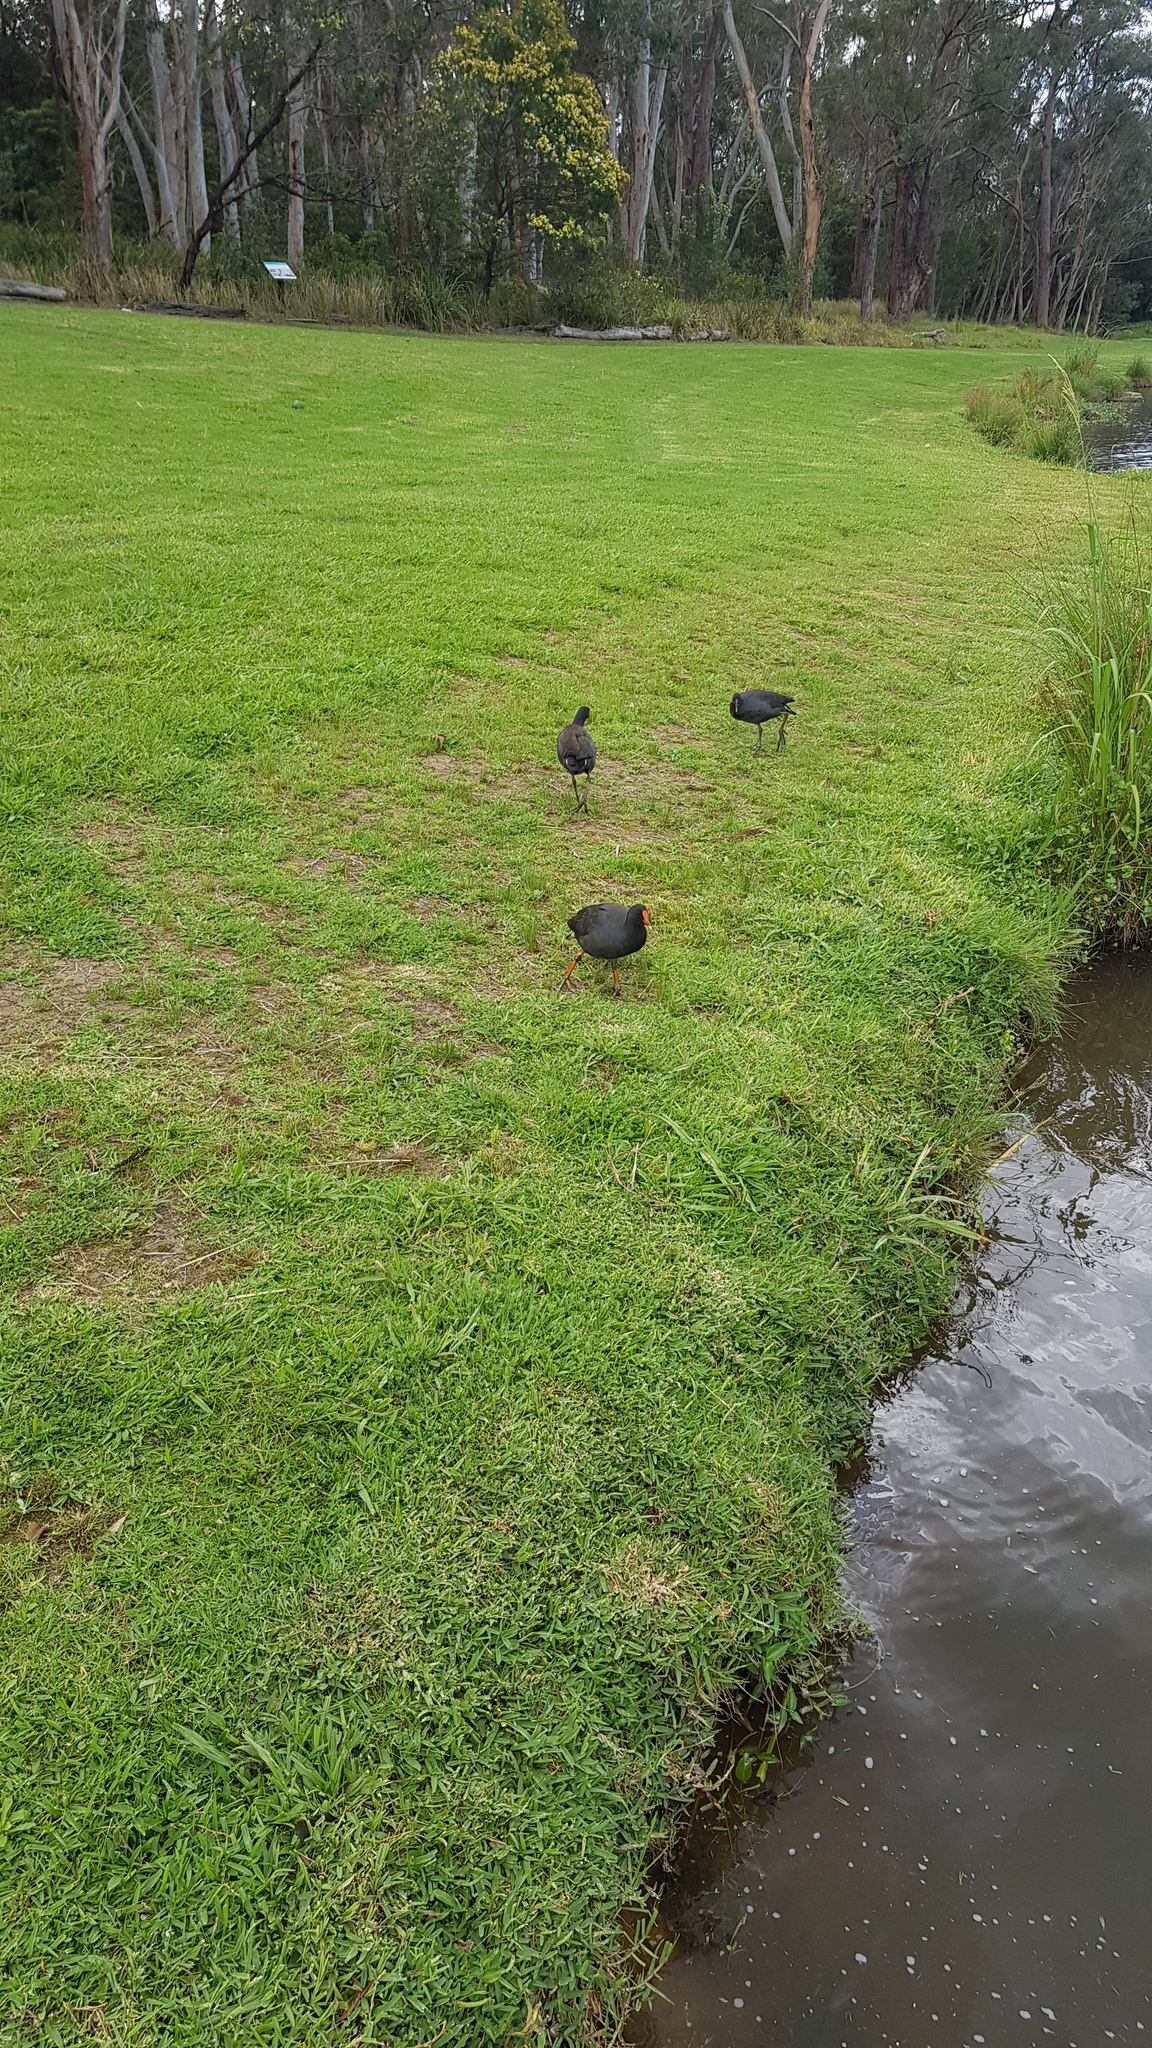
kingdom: Animalia
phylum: Chordata
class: Aves
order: Gruiformes
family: Rallidae
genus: Gallinula
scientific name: Gallinula tenebrosa
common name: Dusky moorhen
